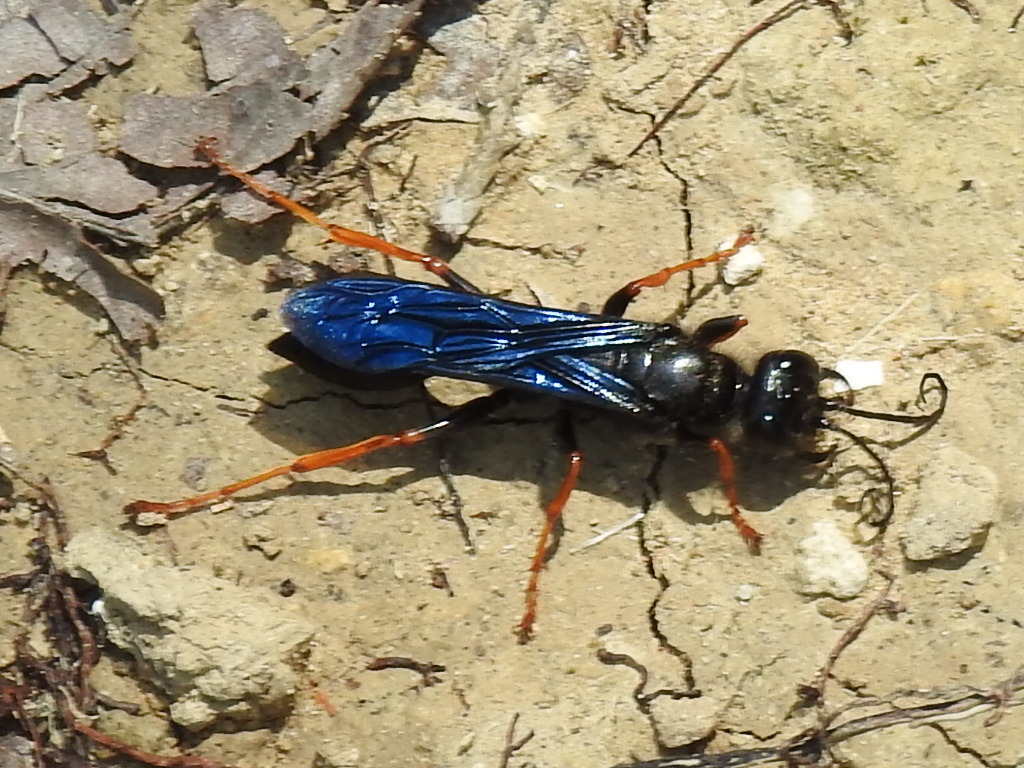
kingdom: Animalia
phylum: Arthropoda
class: Insecta
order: Hymenoptera
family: Sphecidae
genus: Podium
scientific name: Podium luctuosum
